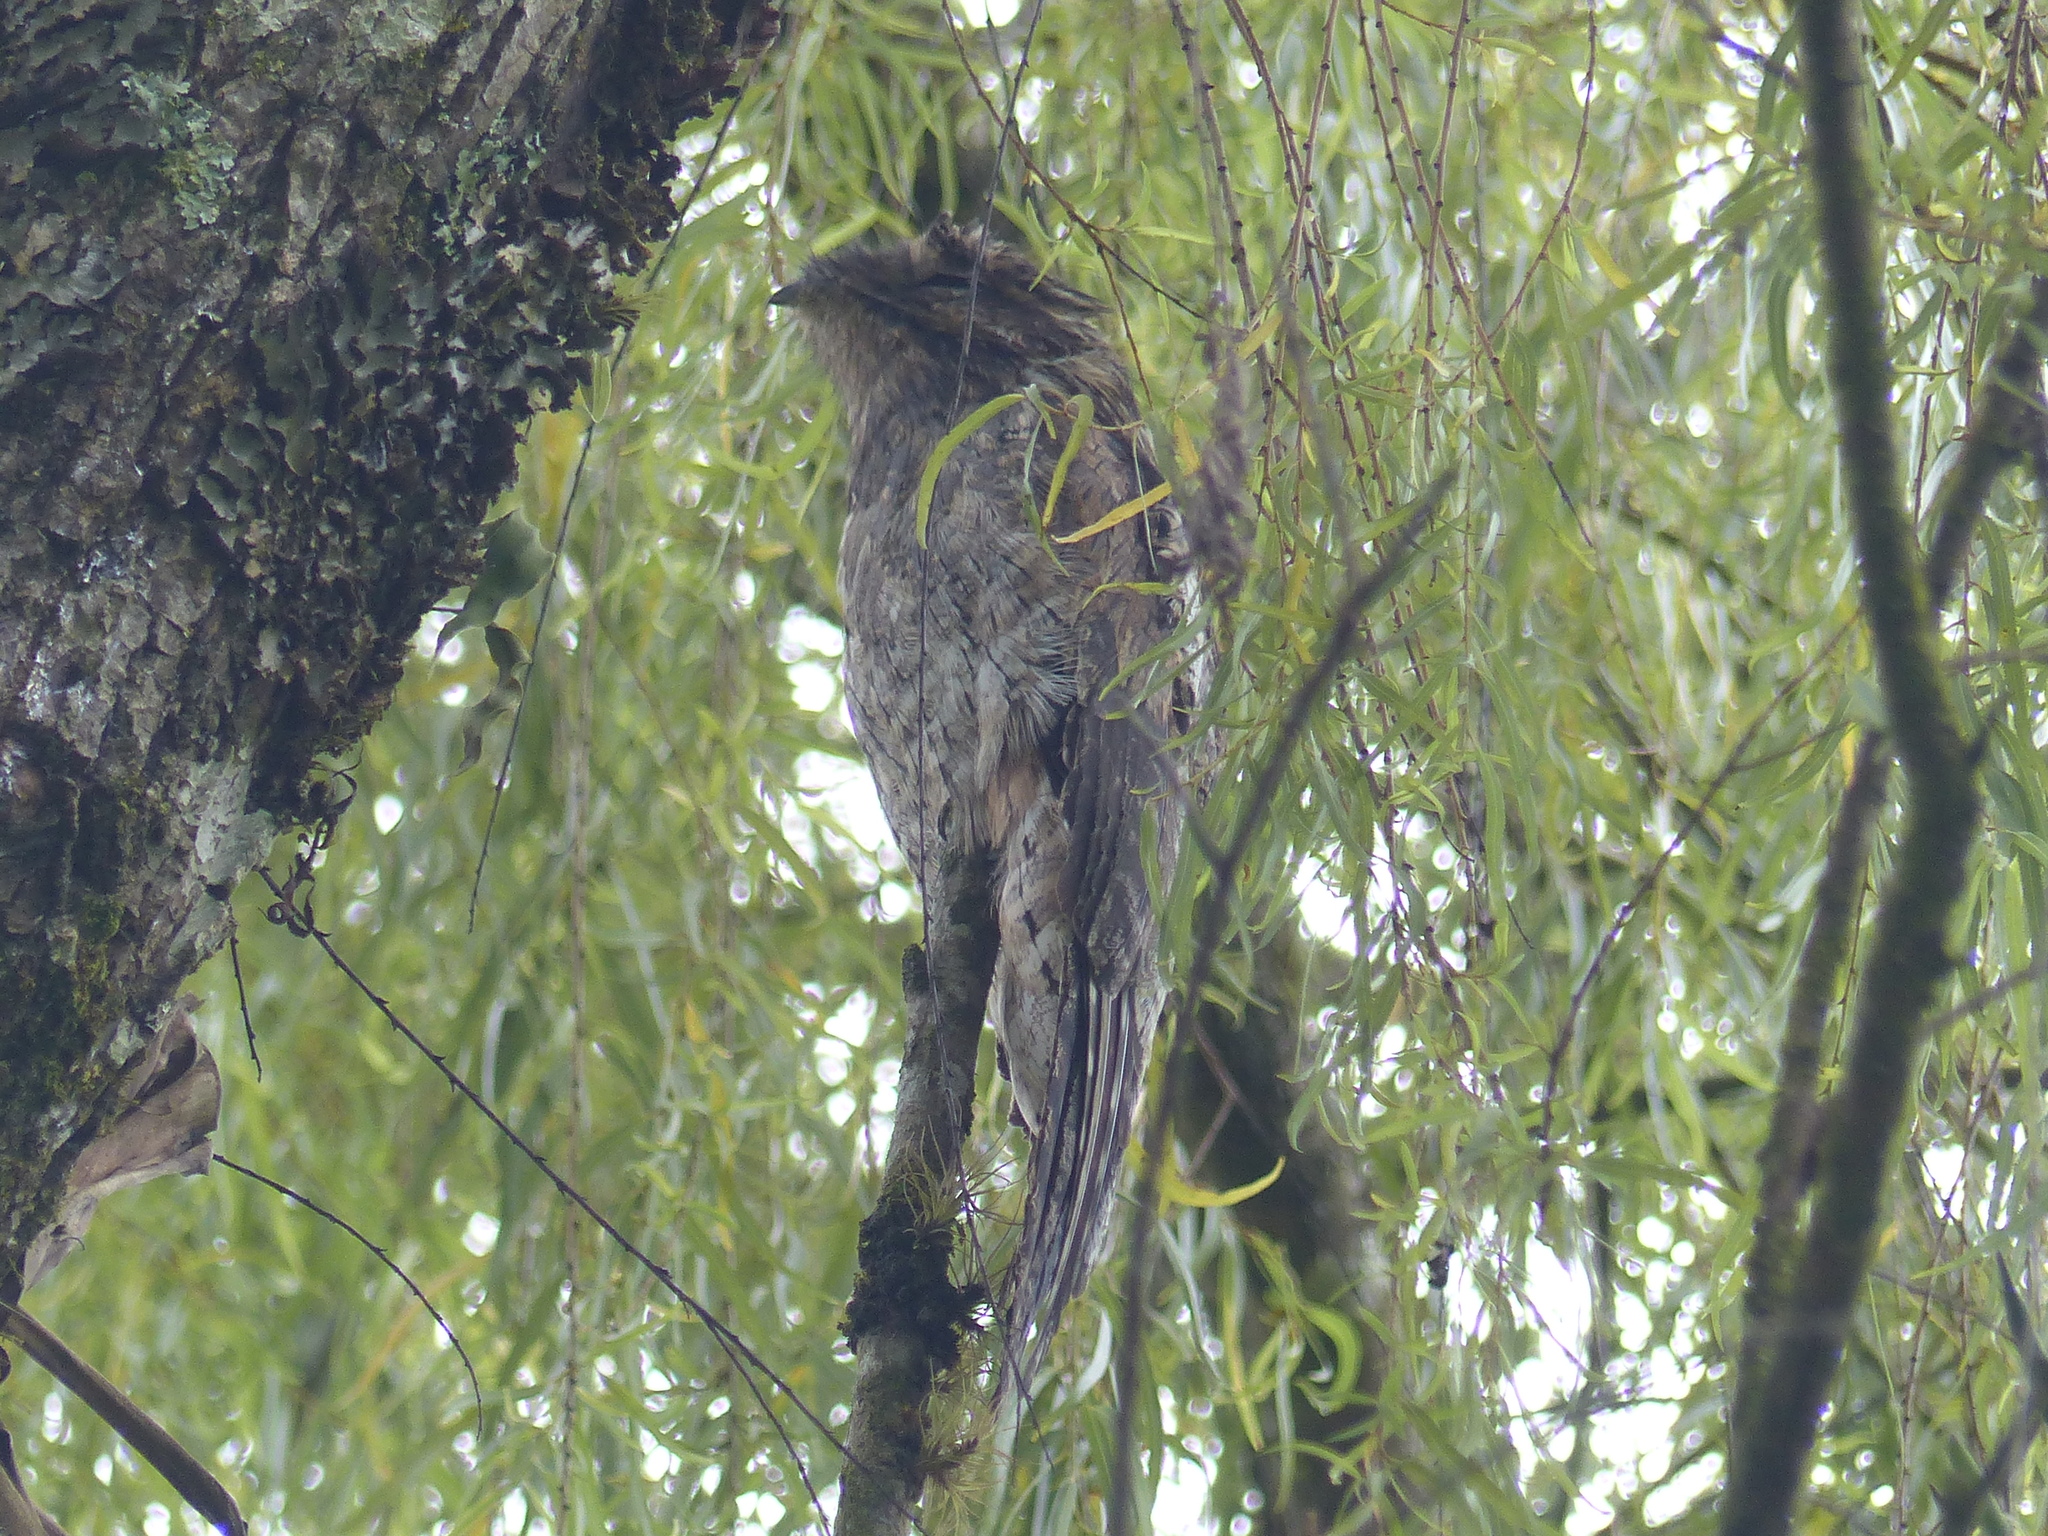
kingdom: Animalia
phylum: Chordata
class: Aves
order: Nyctibiiformes
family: Nyctibiidae
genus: Nyctibius
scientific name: Nyctibius griseus
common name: Common potoo
